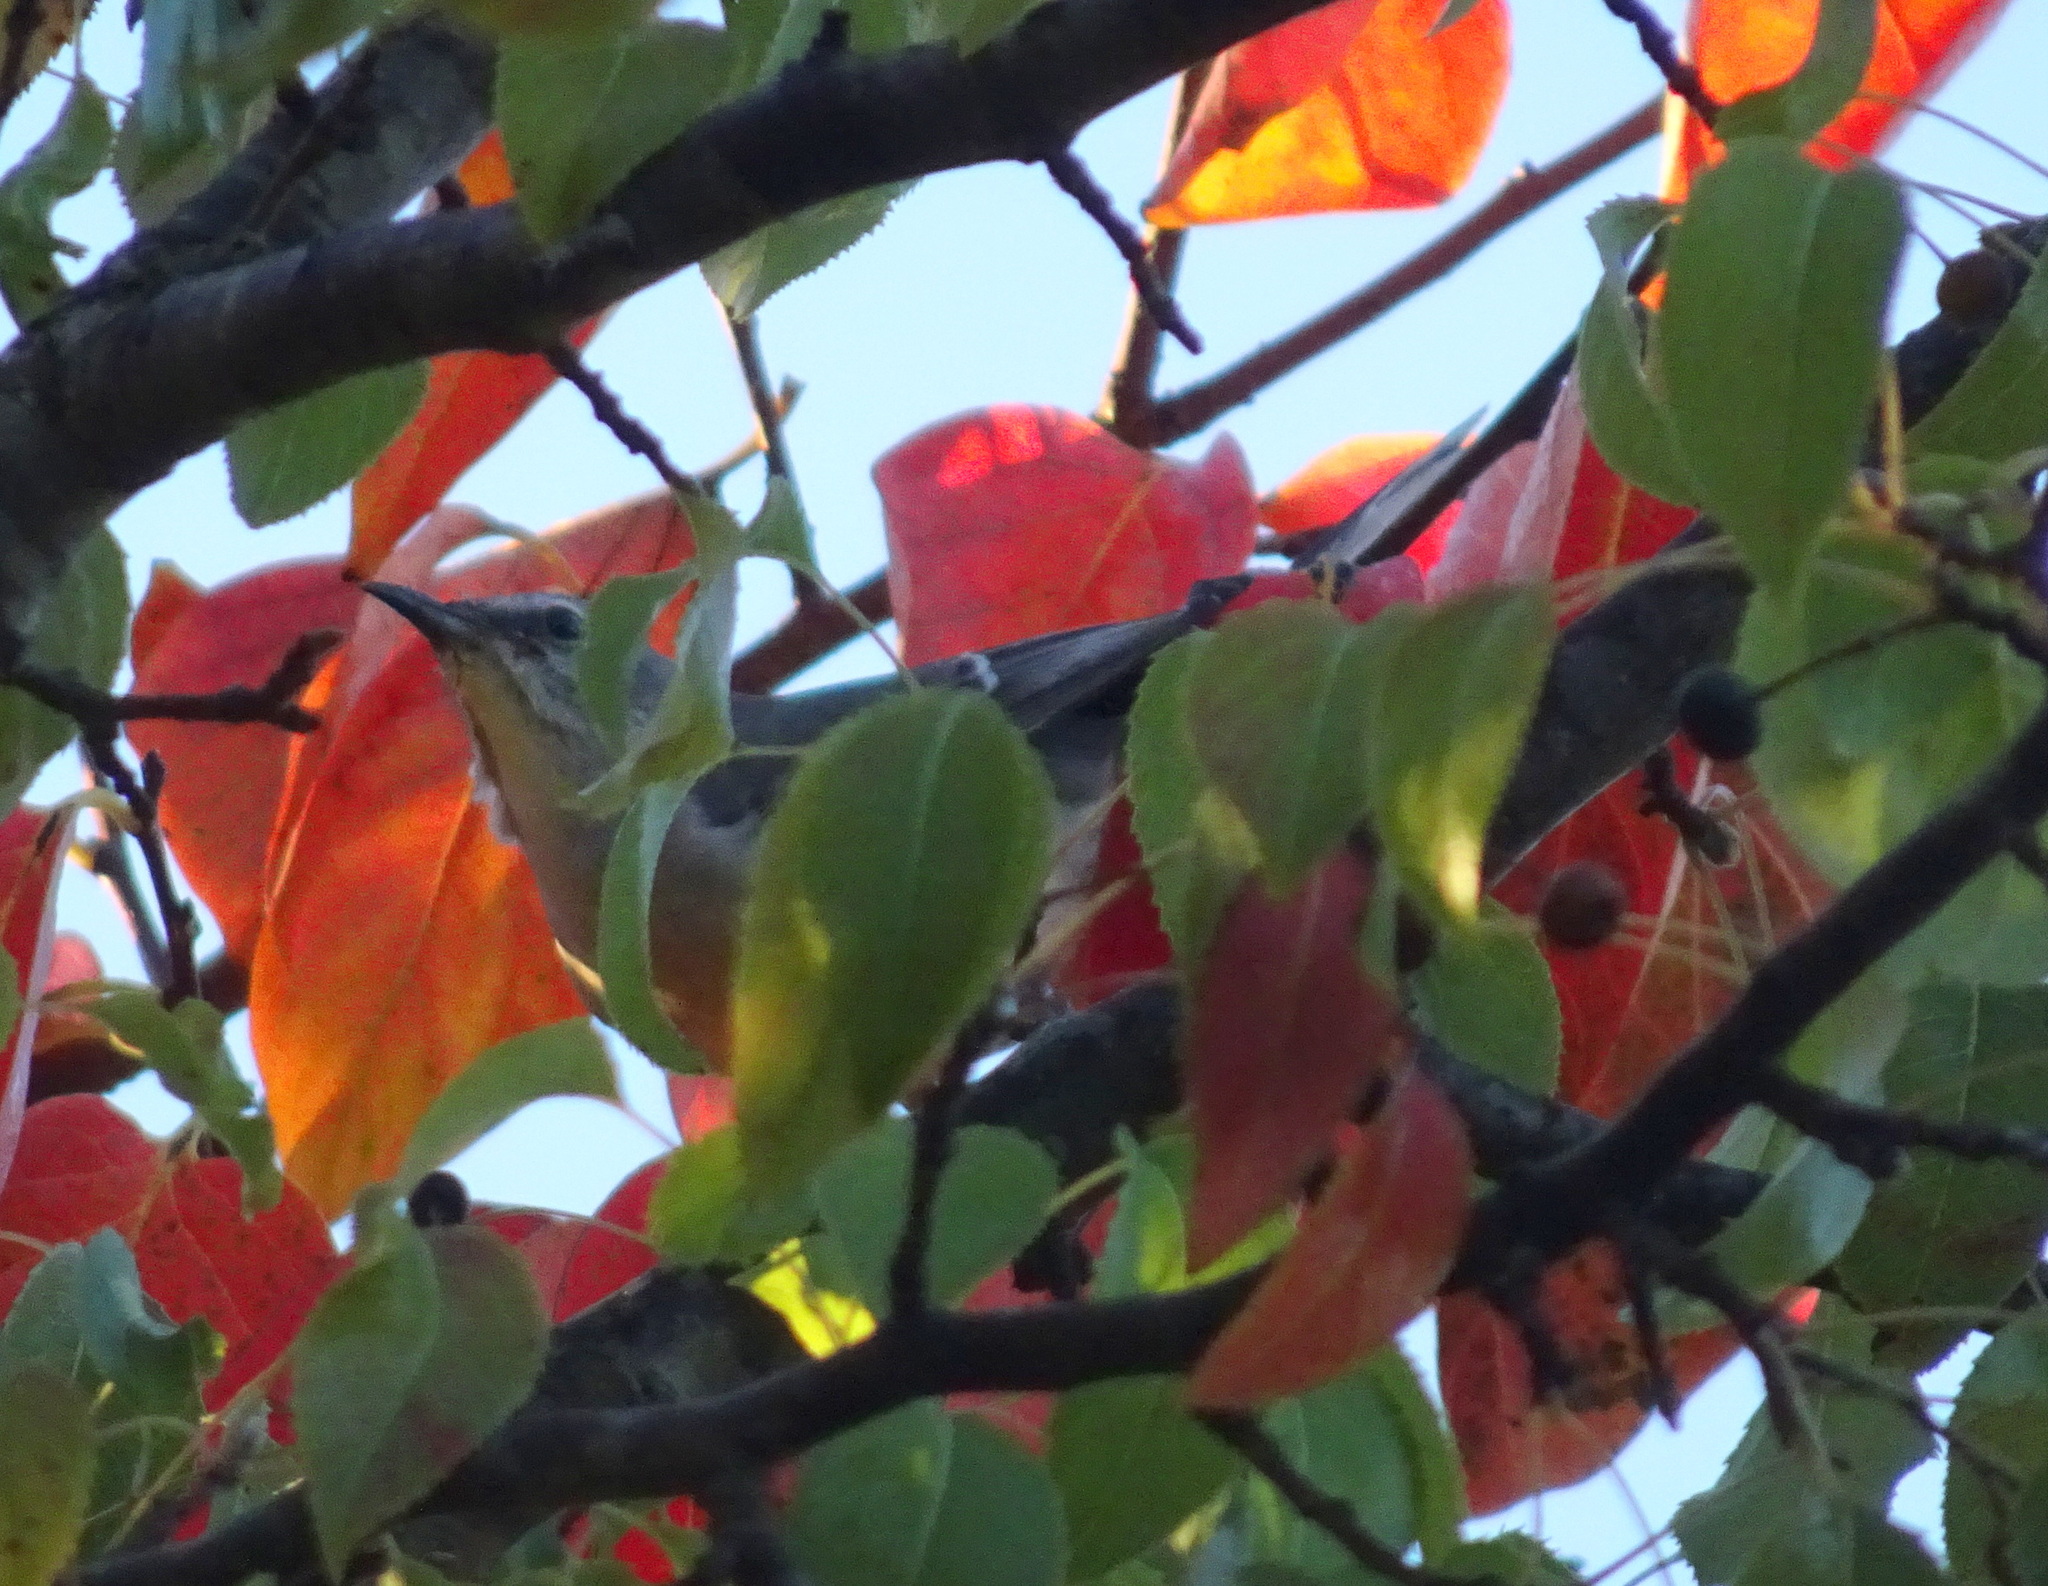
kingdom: Animalia
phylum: Chordata
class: Aves
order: Passeriformes
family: Mimidae
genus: Mimus
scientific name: Mimus polyglottos
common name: Northern mockingbird
